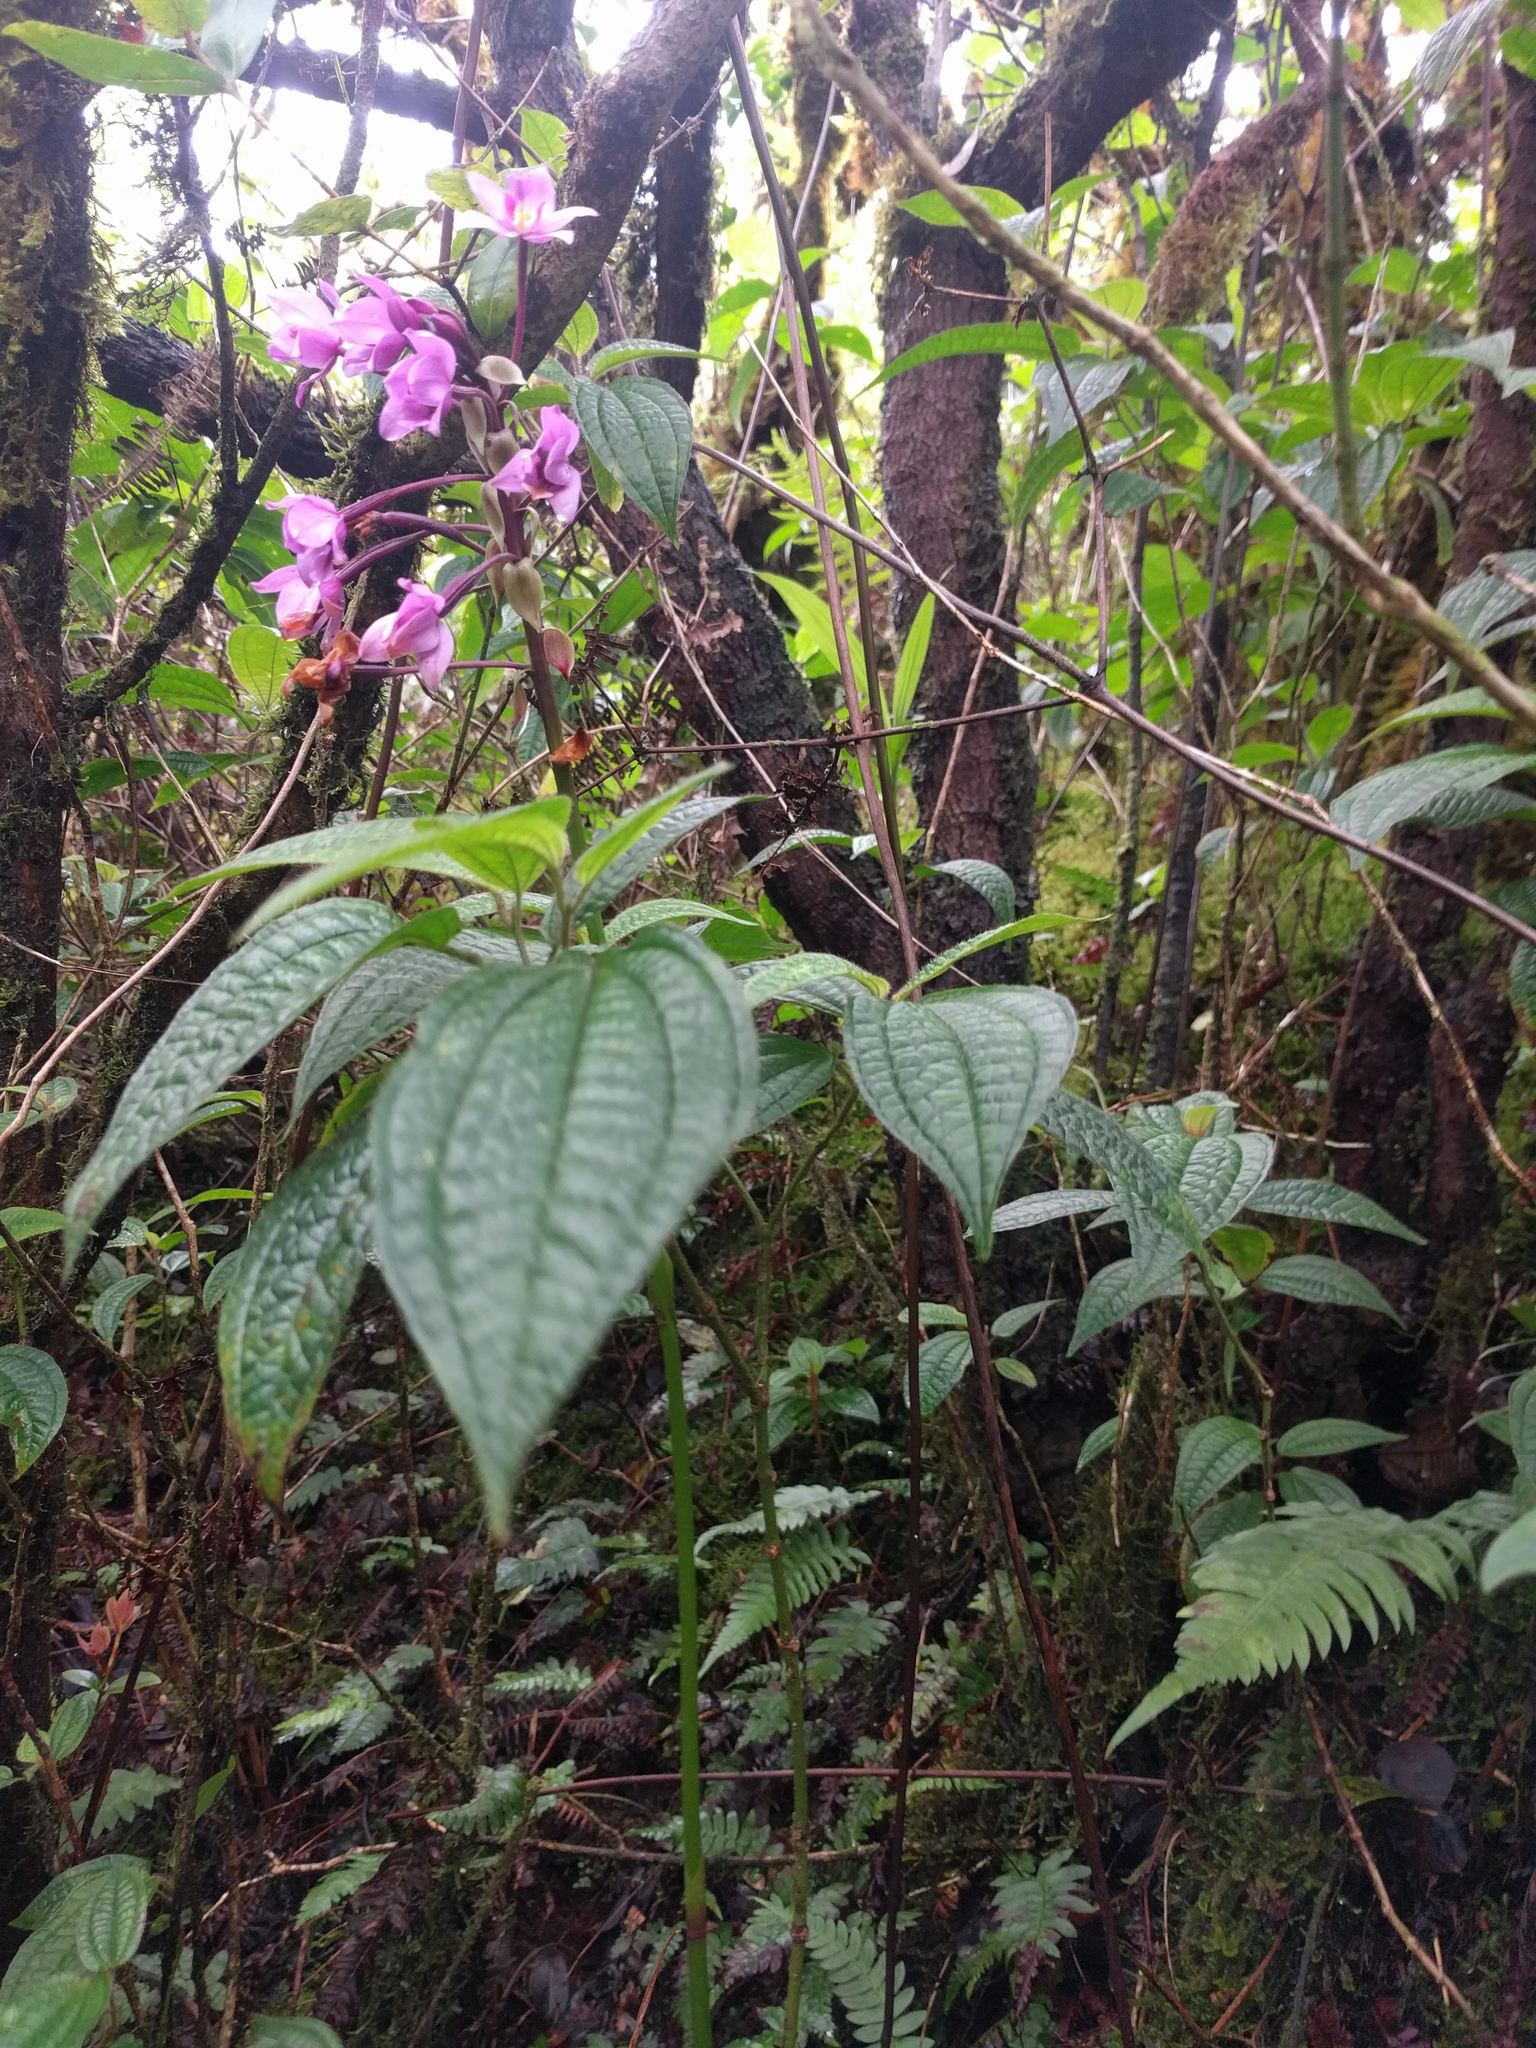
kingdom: Plantae
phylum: Tracheophyta
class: Liliopsida
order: Asparagales
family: Orchidaceae
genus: Spathoglottis
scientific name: Spathoglottis plicata
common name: Philippine ground orchid
